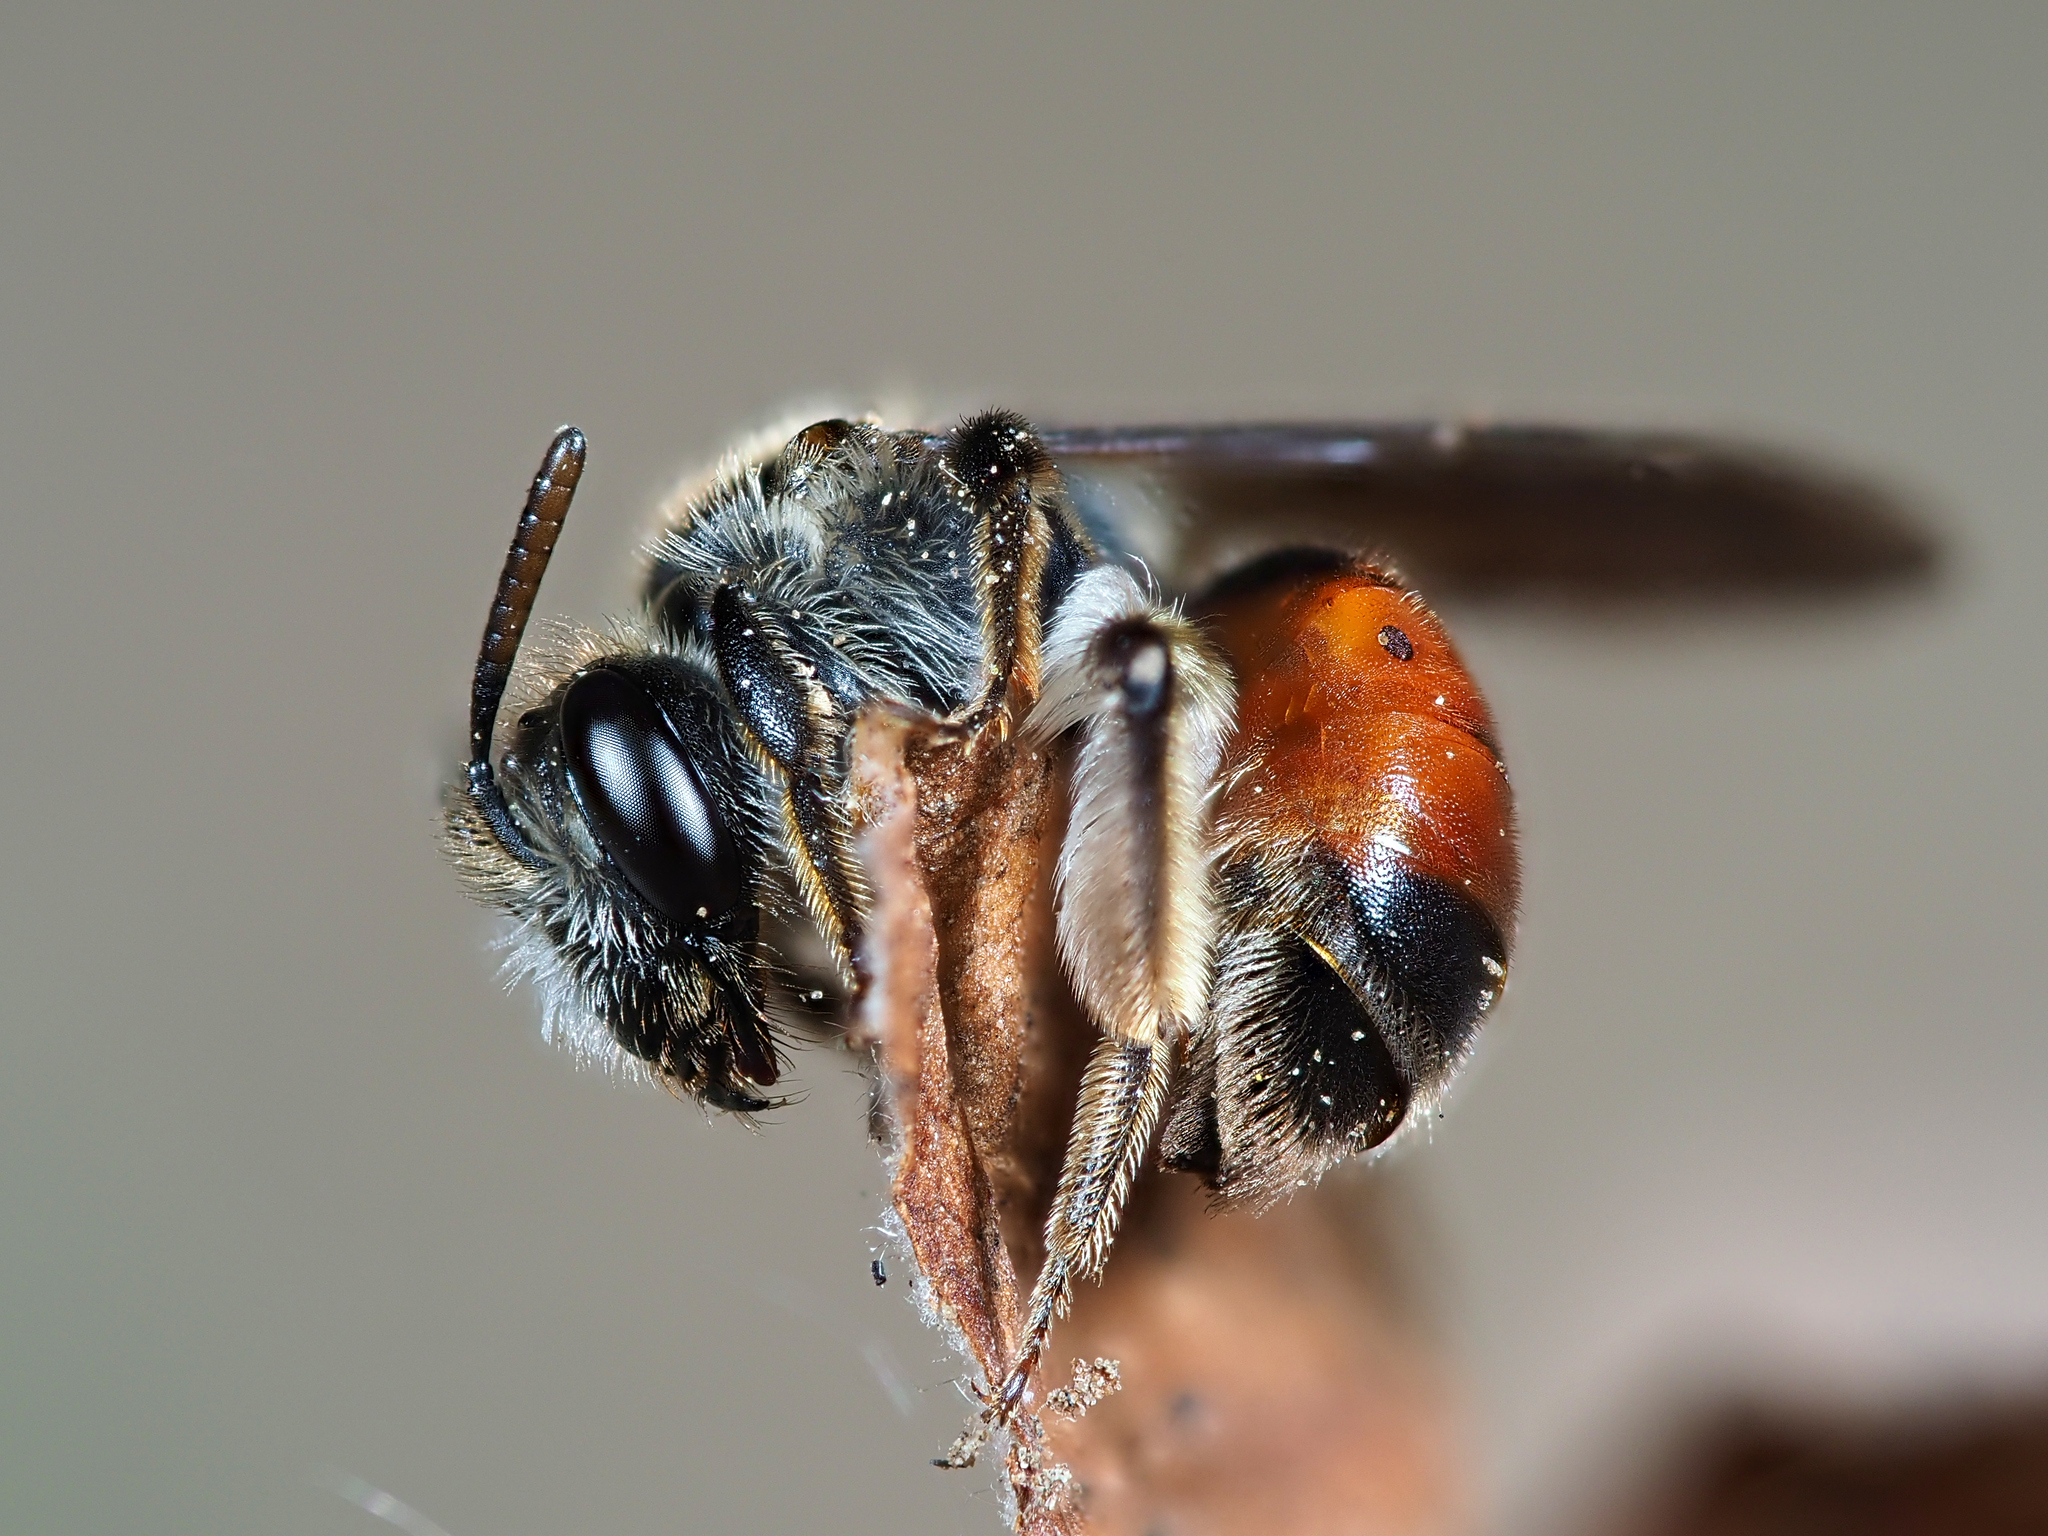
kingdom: Animalia
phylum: Arthropoda
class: Insecta
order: Hymenoptera
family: Andrenidae
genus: Andrena
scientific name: Andrena labiata
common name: Red-girdled mining bee
